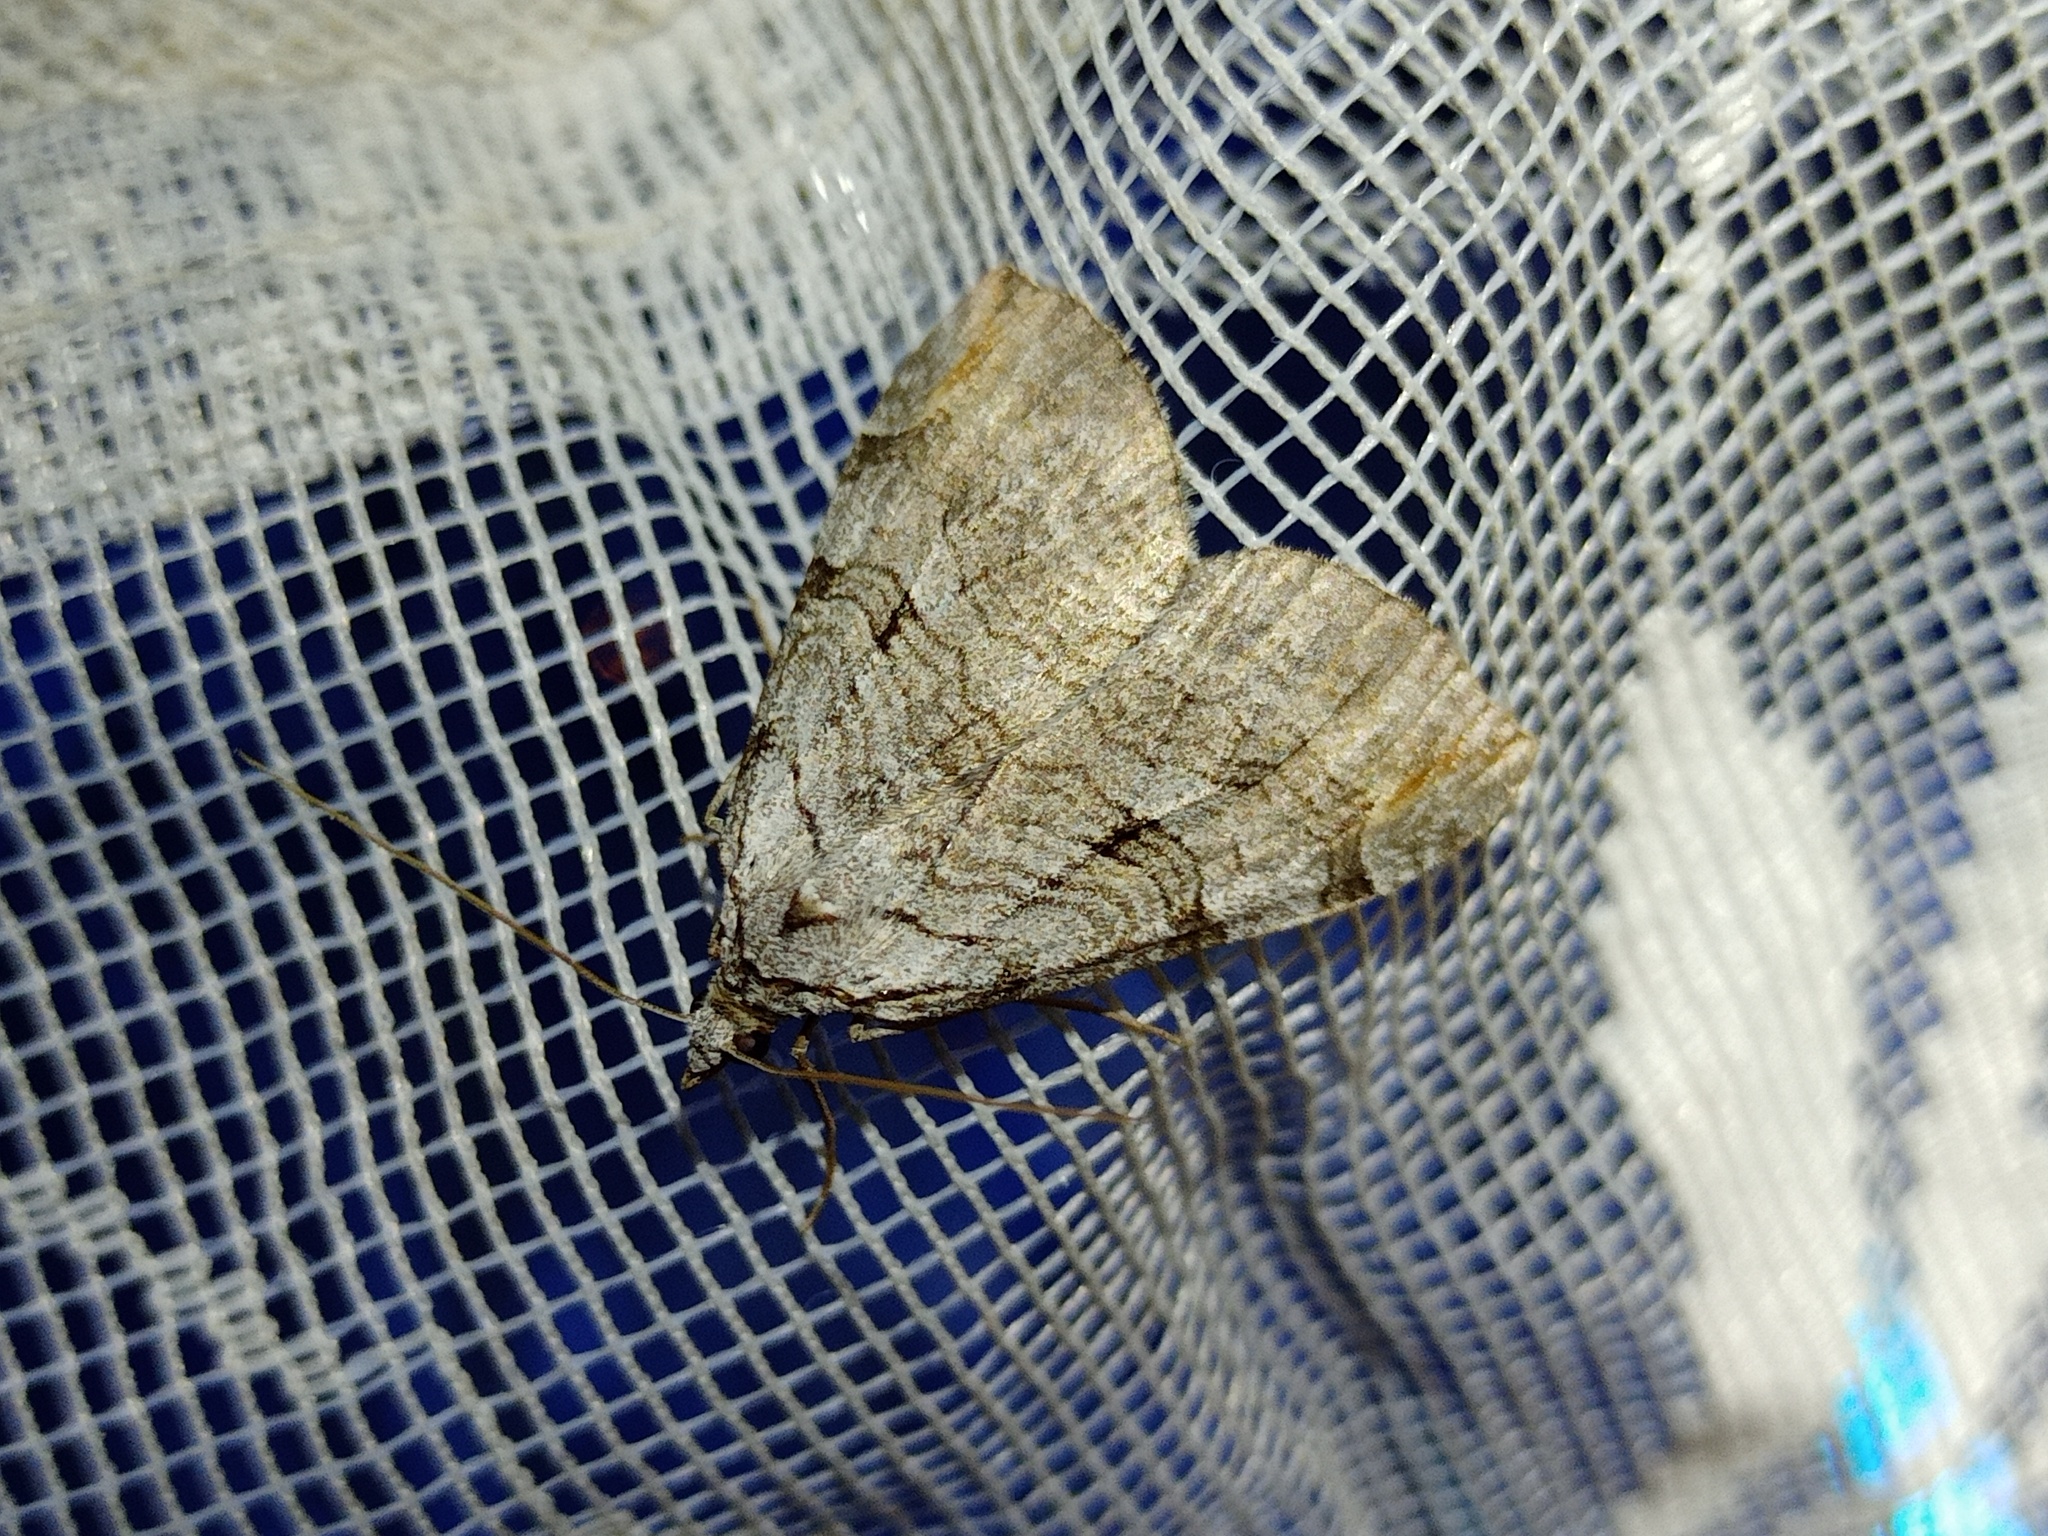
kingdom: Animalia
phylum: Arthropoda
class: Insecta
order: Lepidoptera
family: Geometridae
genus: Aplocera
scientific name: Aplocera plagiata
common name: Treble-bar
